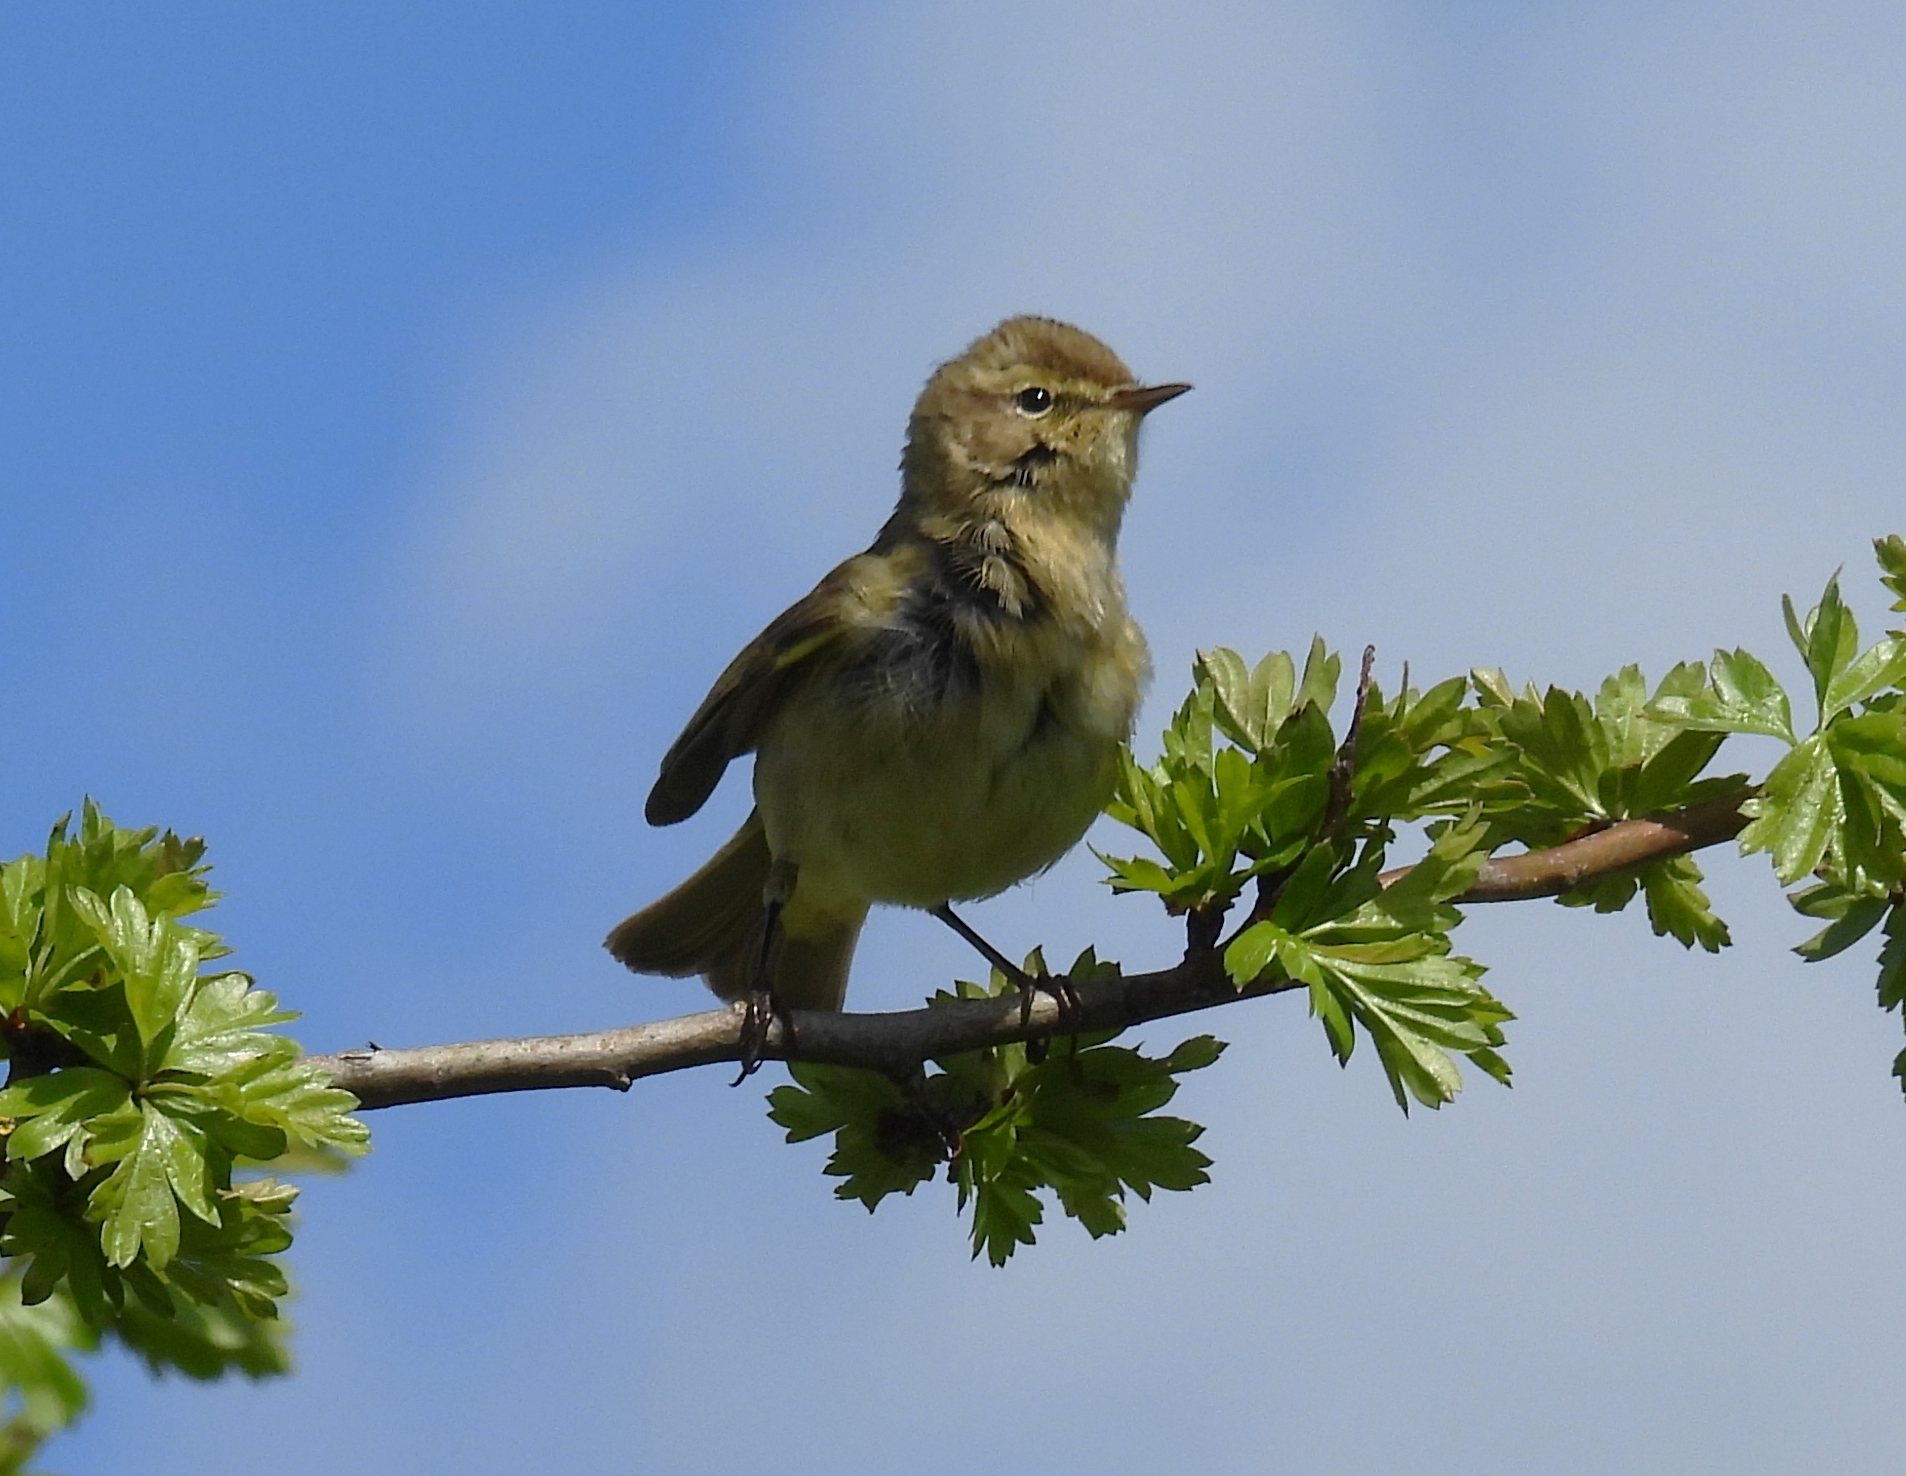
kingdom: Animalia
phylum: Chordata
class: Aves
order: Passeriformes
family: Phylloscopidae
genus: Phylloscopus
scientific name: Phylloscopus collybita
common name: Common chiffchaff
